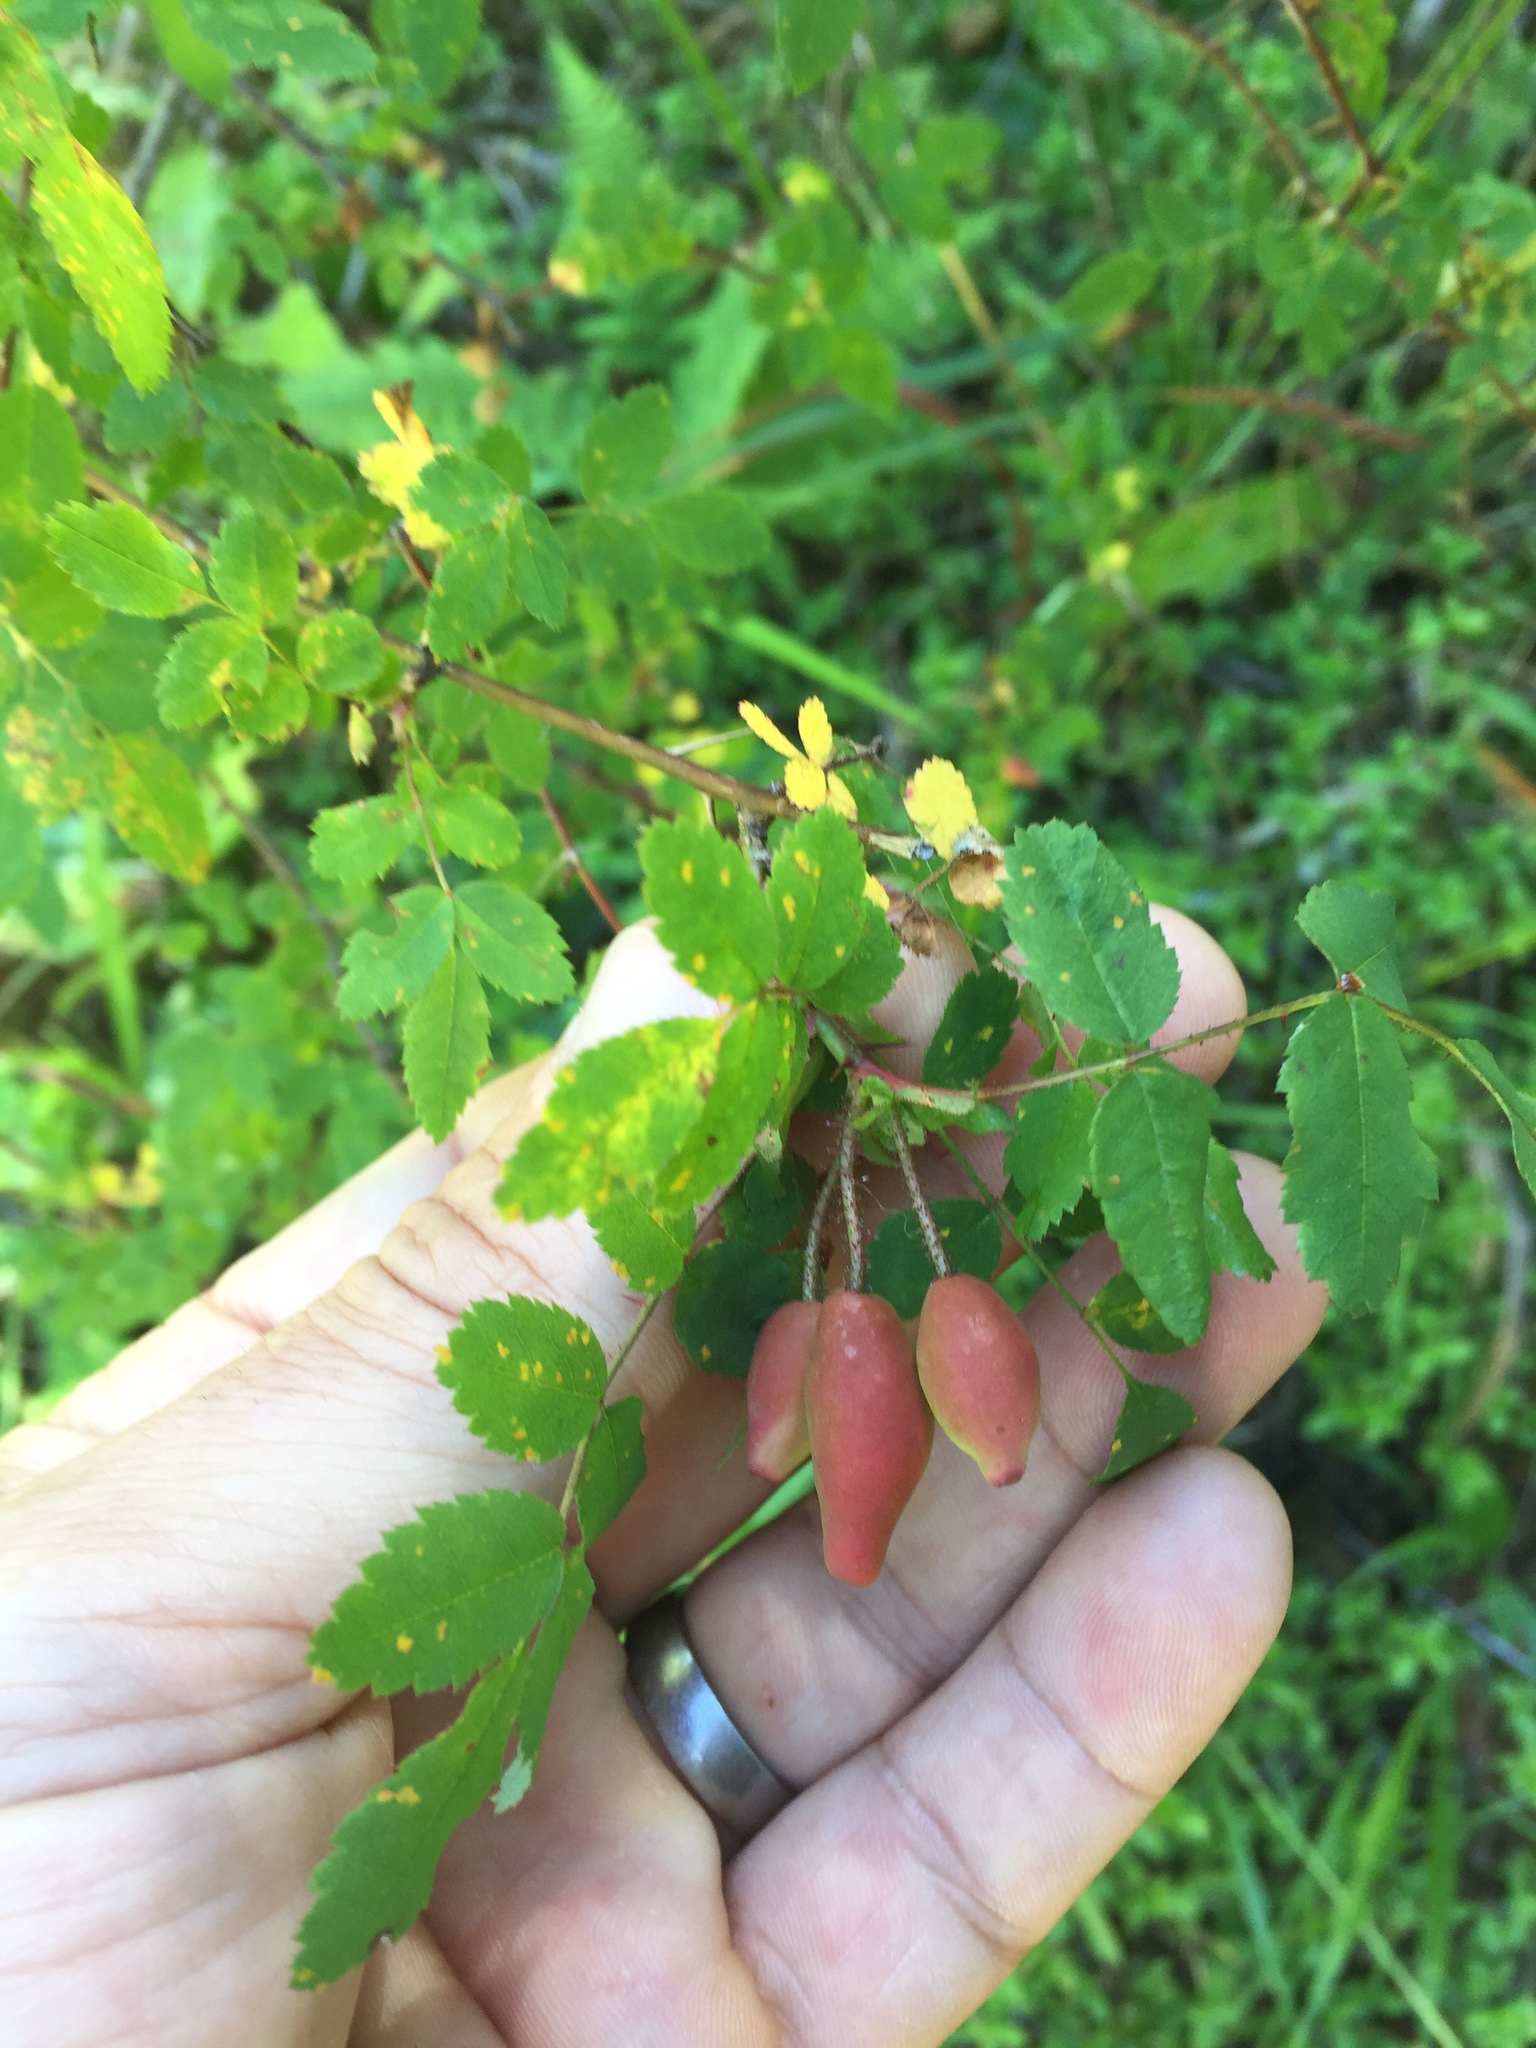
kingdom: Plantae
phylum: Tracheophyta
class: Magnoliopsida
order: Rosales
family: Rosaceae
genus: Rosa
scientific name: Rosa gymnocarpa
